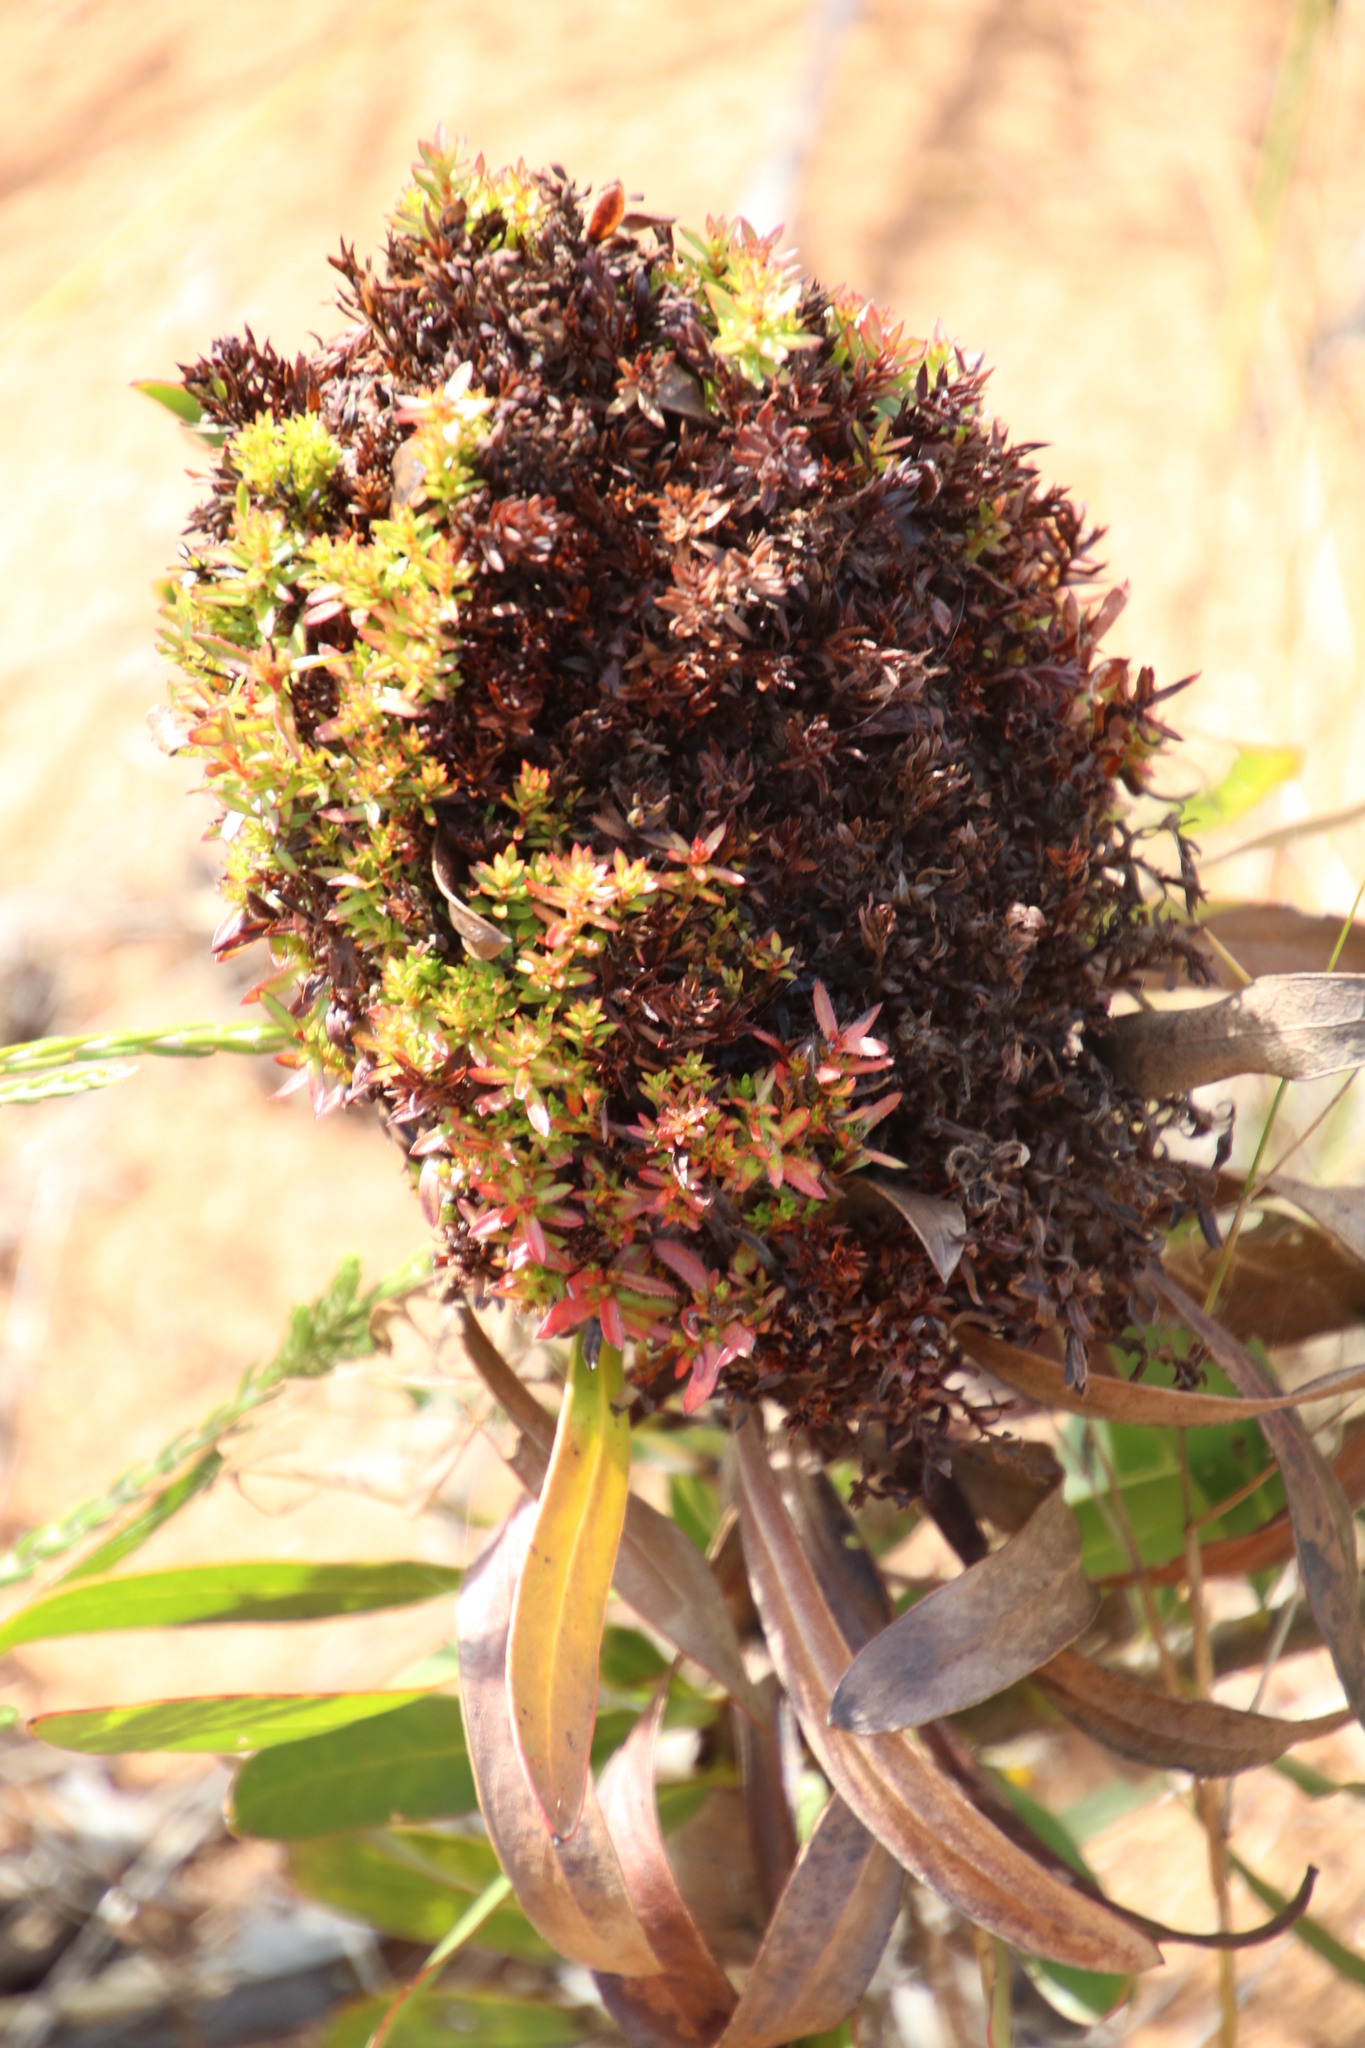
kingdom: Bacteria
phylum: Firmicutes
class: Bacilli
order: Acholeplasmatales
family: Acholeplasmataceae
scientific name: Acholeplasmataceae
